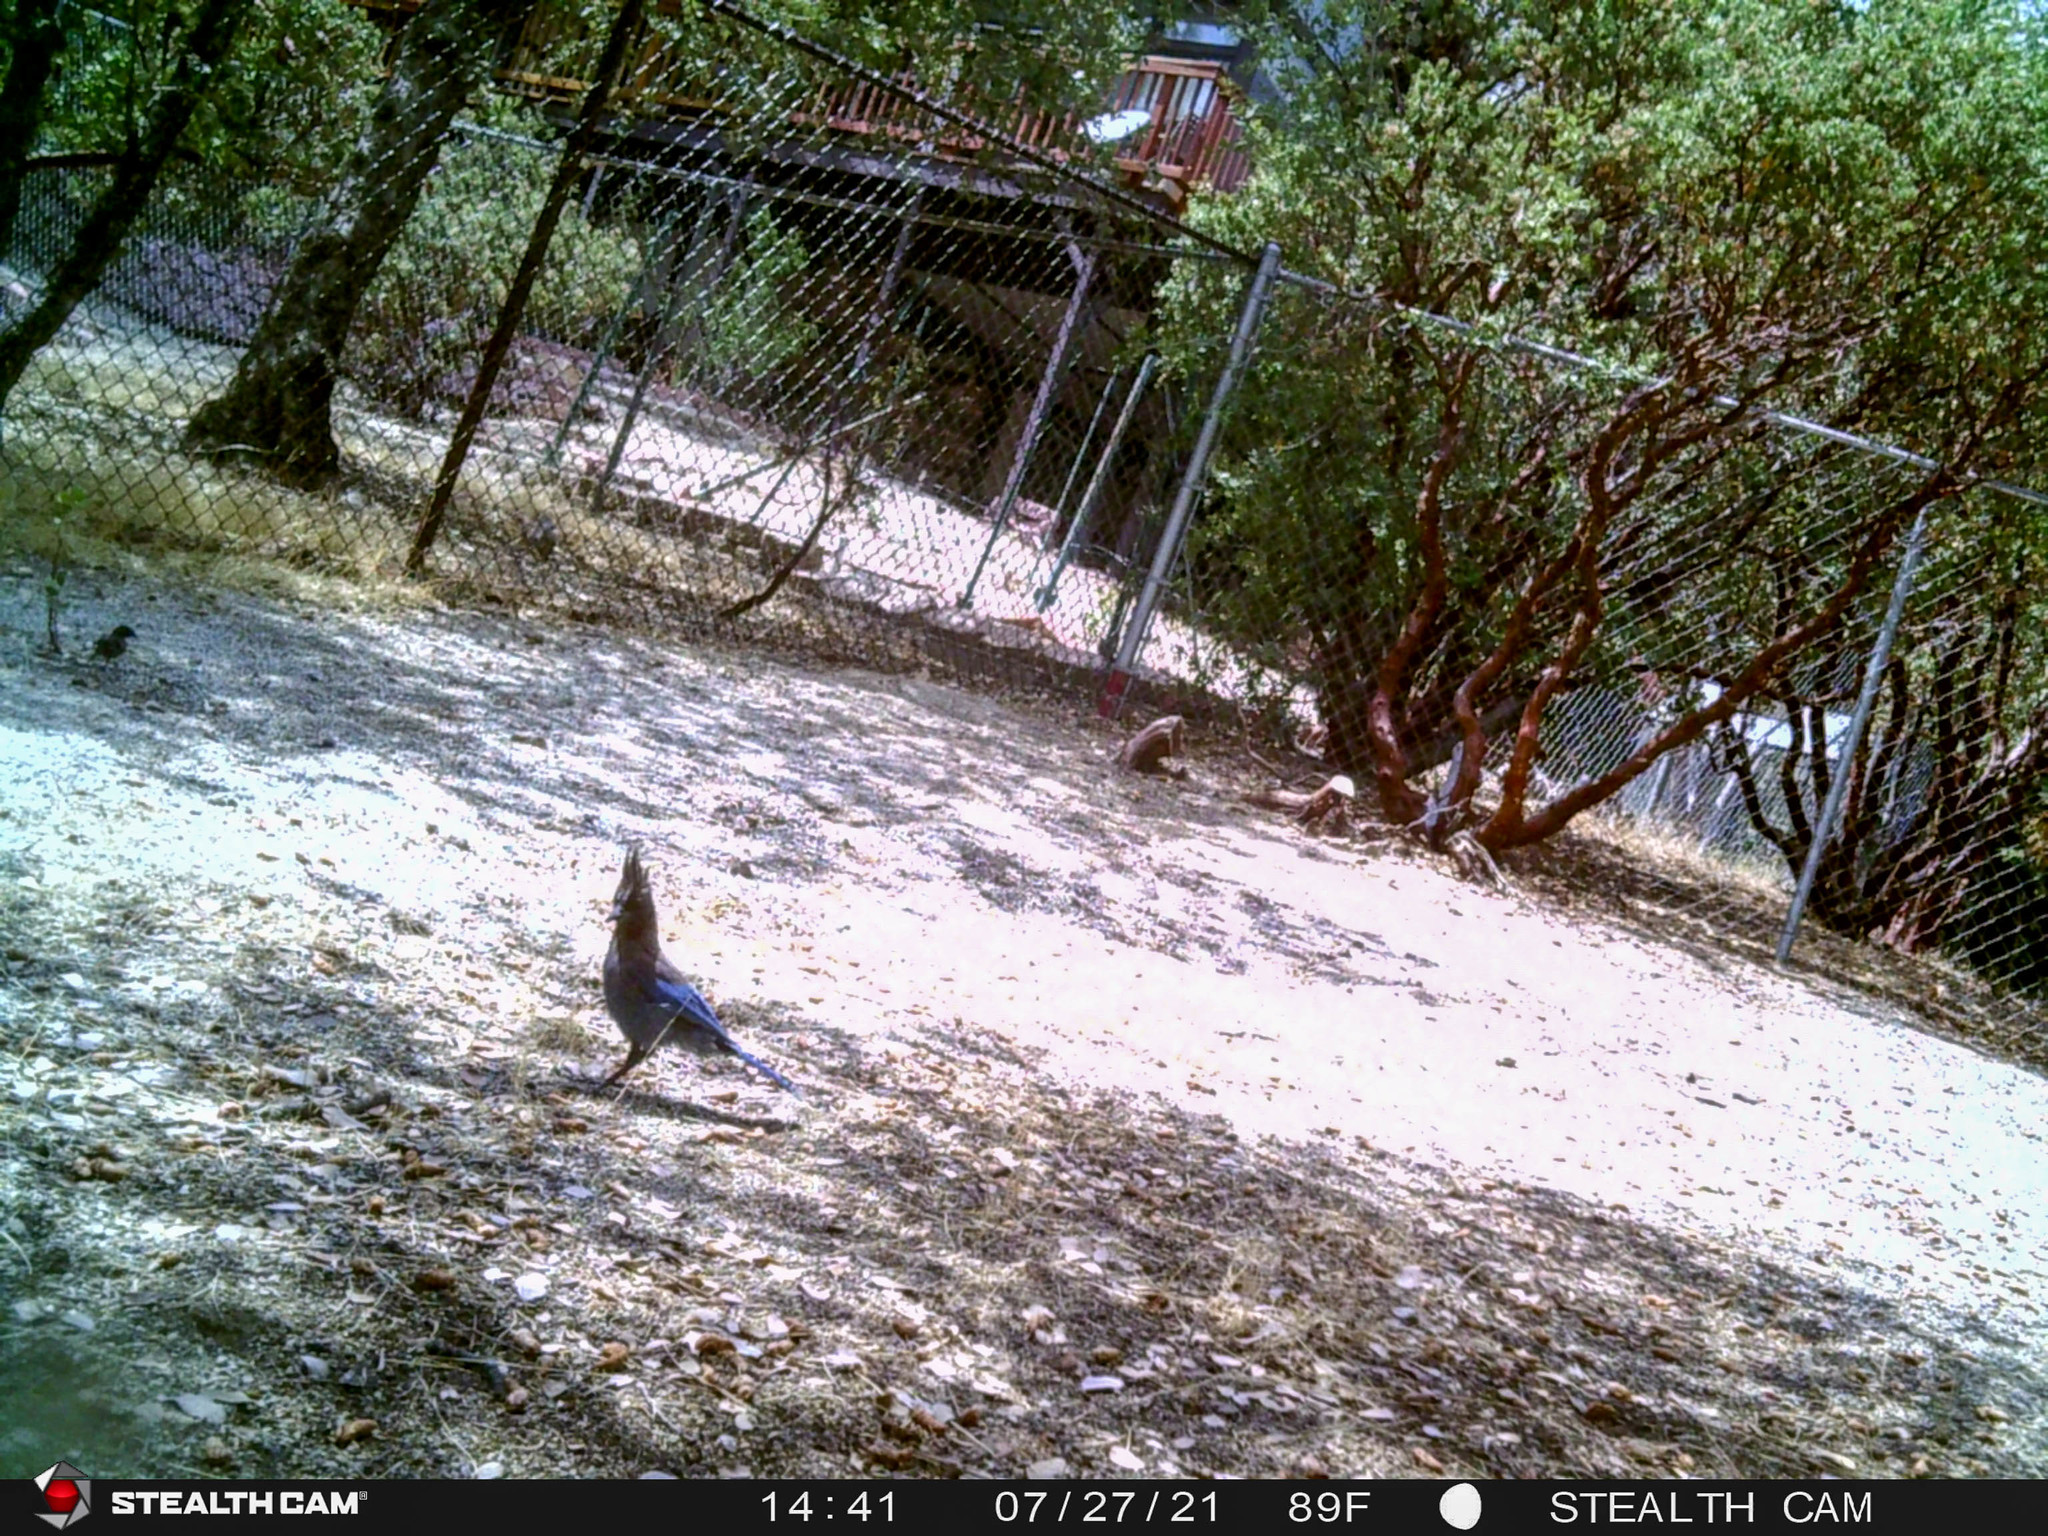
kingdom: Animalia
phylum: Chordata
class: Aves
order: Passeriformes
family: Corvidae
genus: Cyanocitta
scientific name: Cyanocitta stelleri
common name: Steller's jay
